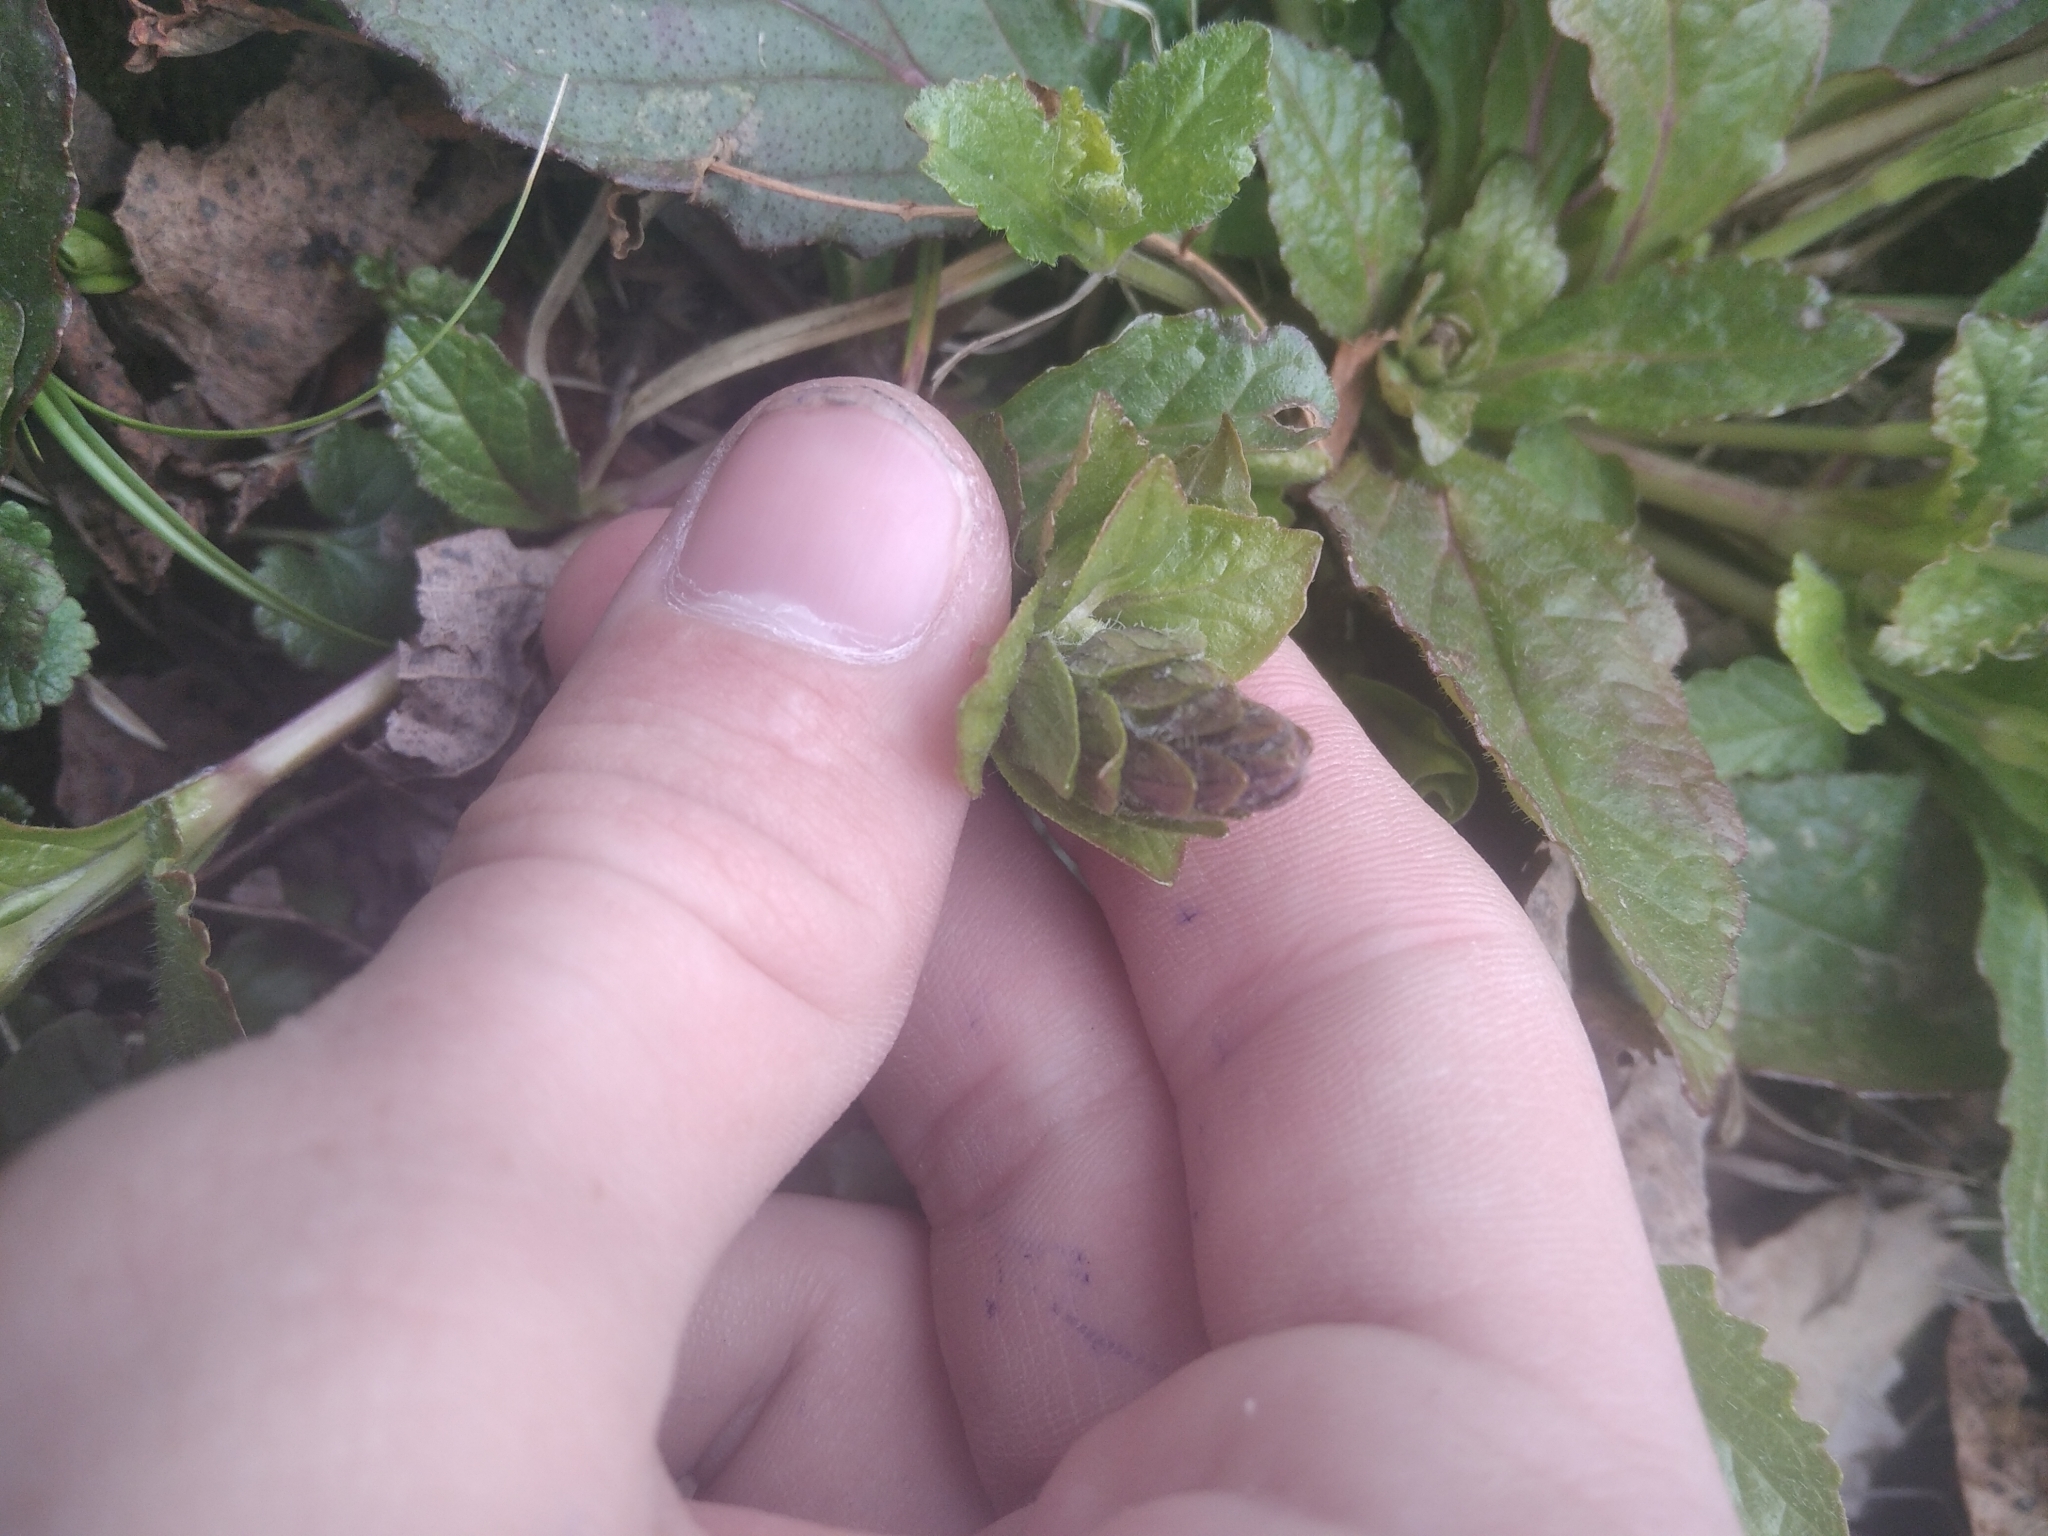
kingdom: Plantae
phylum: Tracheophyta
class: Magnoliopsida
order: Lamiales
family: Lamiaceae
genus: Ajuga
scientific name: Ajuga reptans
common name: Bugle
